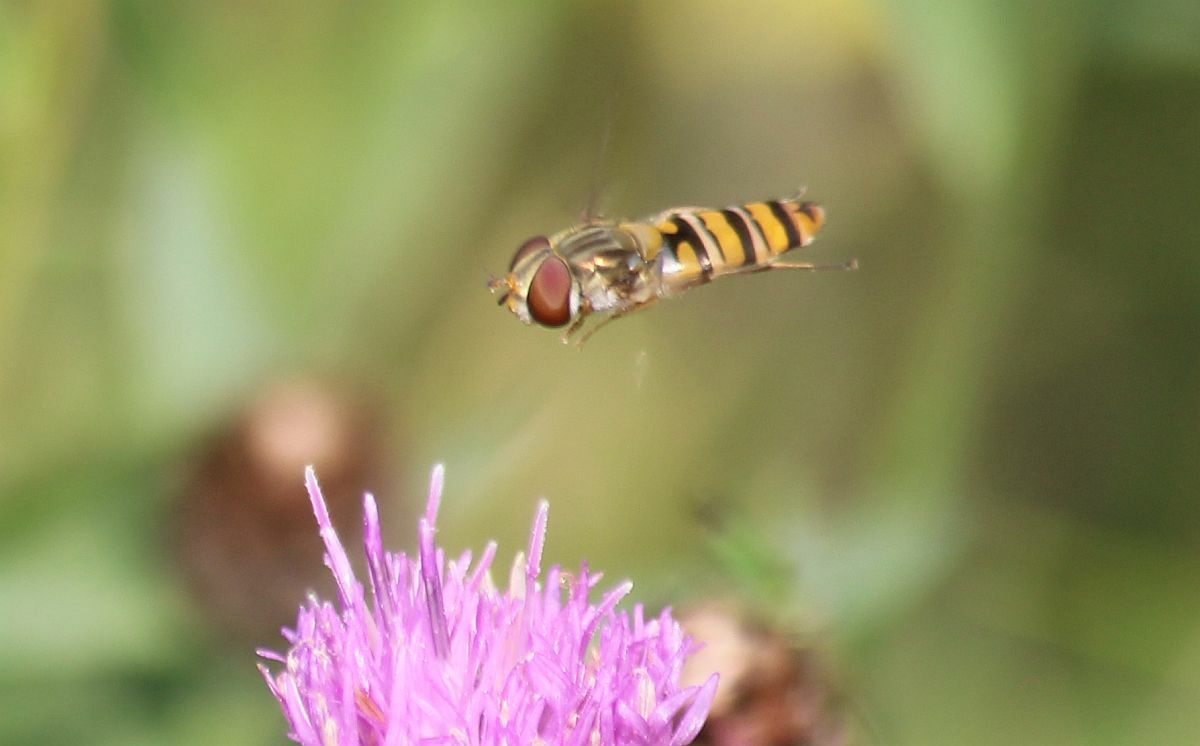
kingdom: Animalia
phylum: Arthropoda
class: Insecta
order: Diptera
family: Syrphidae
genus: Episyrphus
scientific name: Episyrphus balteatus
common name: Marmalade hoverfly
